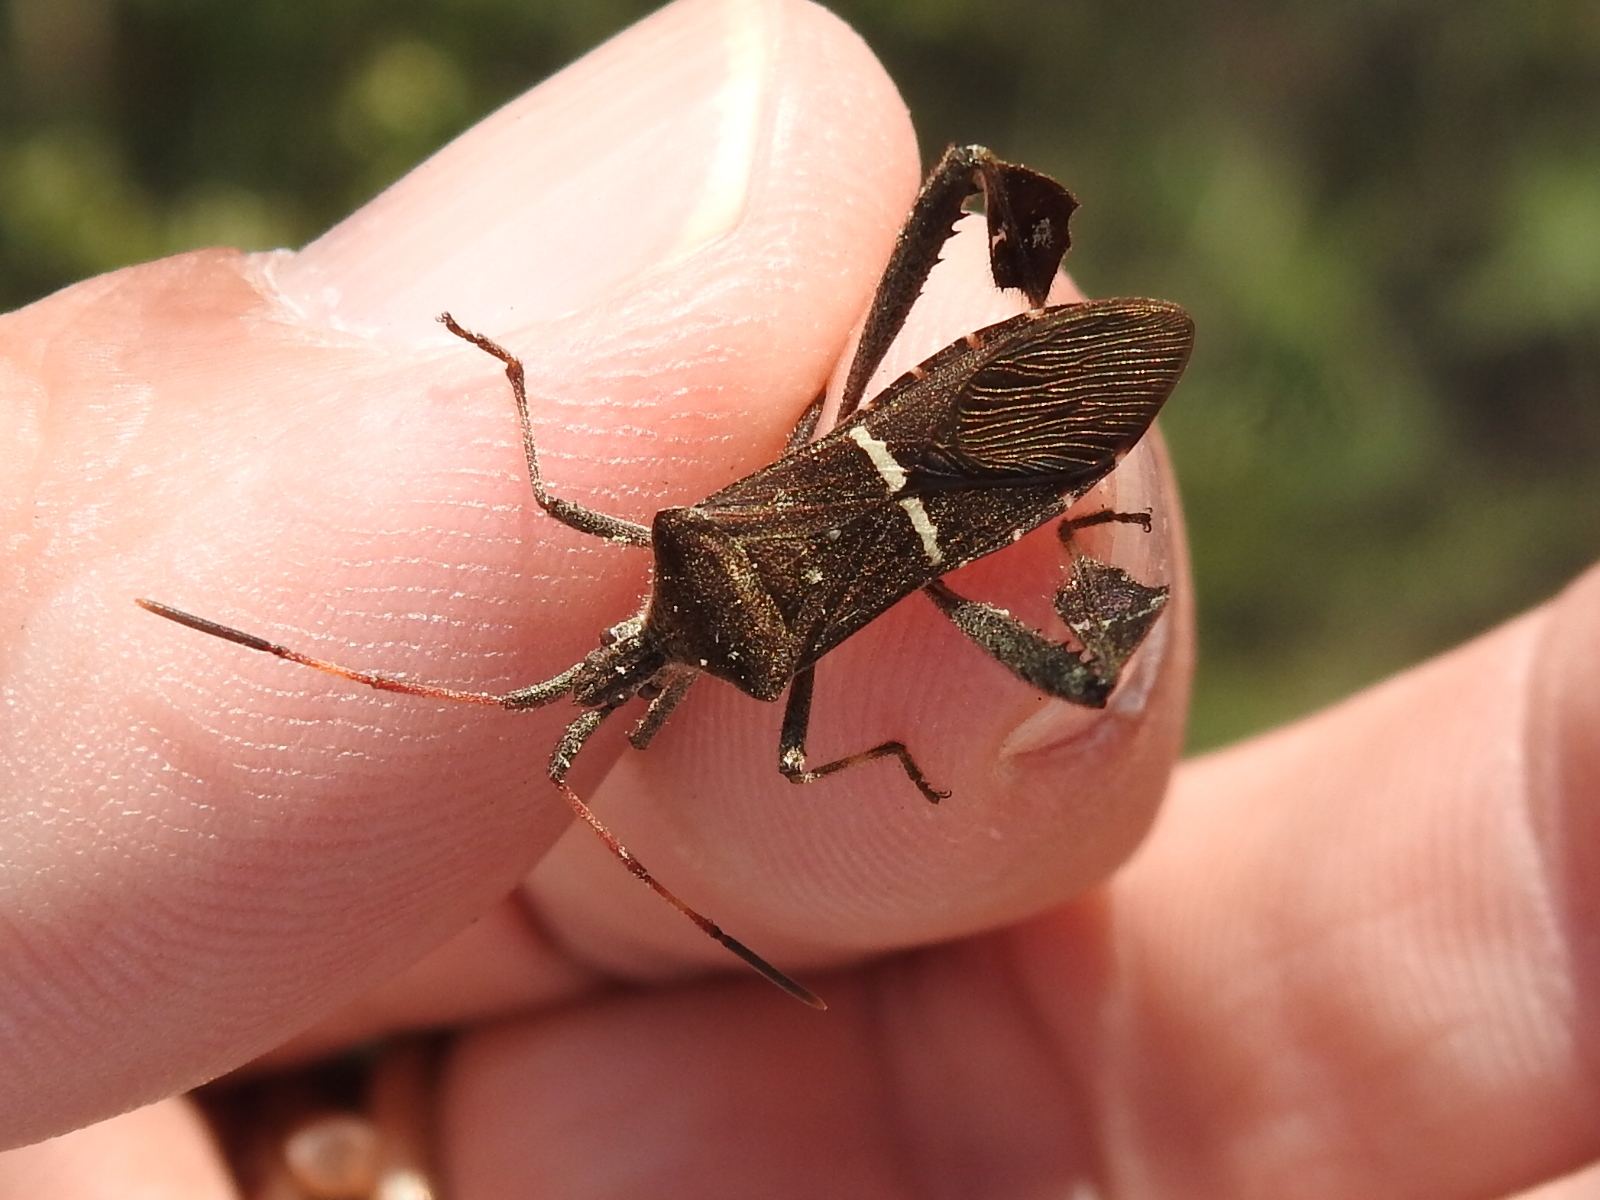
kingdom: Animalia
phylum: Arthropoda
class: Insecta
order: Hemiptera
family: Coreidae
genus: Leptoglossus
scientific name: Leptoglossus phyllopus
